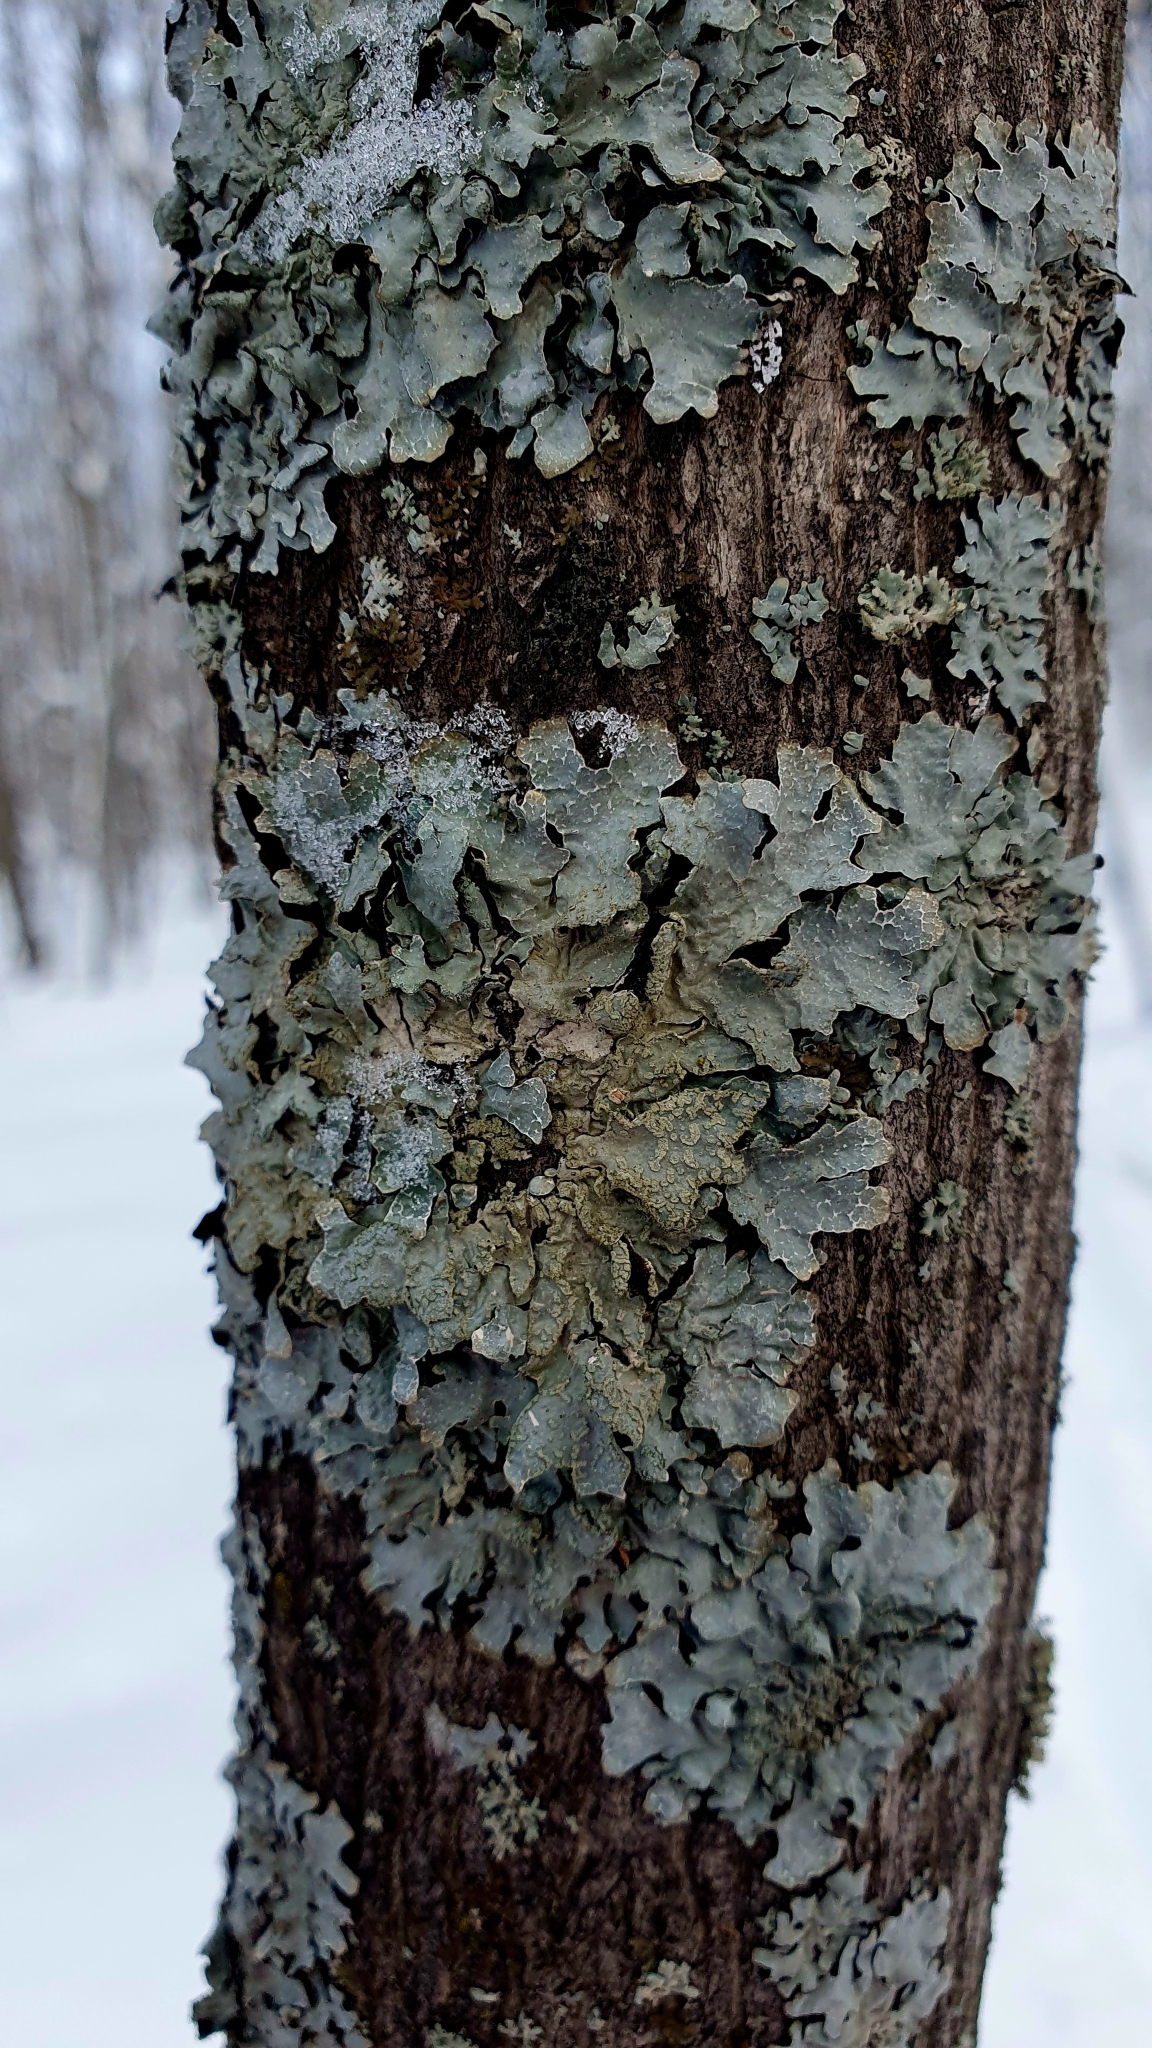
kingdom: Fungi
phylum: Ascomycota
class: Lecanoromycetes
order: Lecanorales
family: Parmeliaceae
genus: Parmelia
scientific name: Parmelia sulcata
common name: Netted shield lichen
